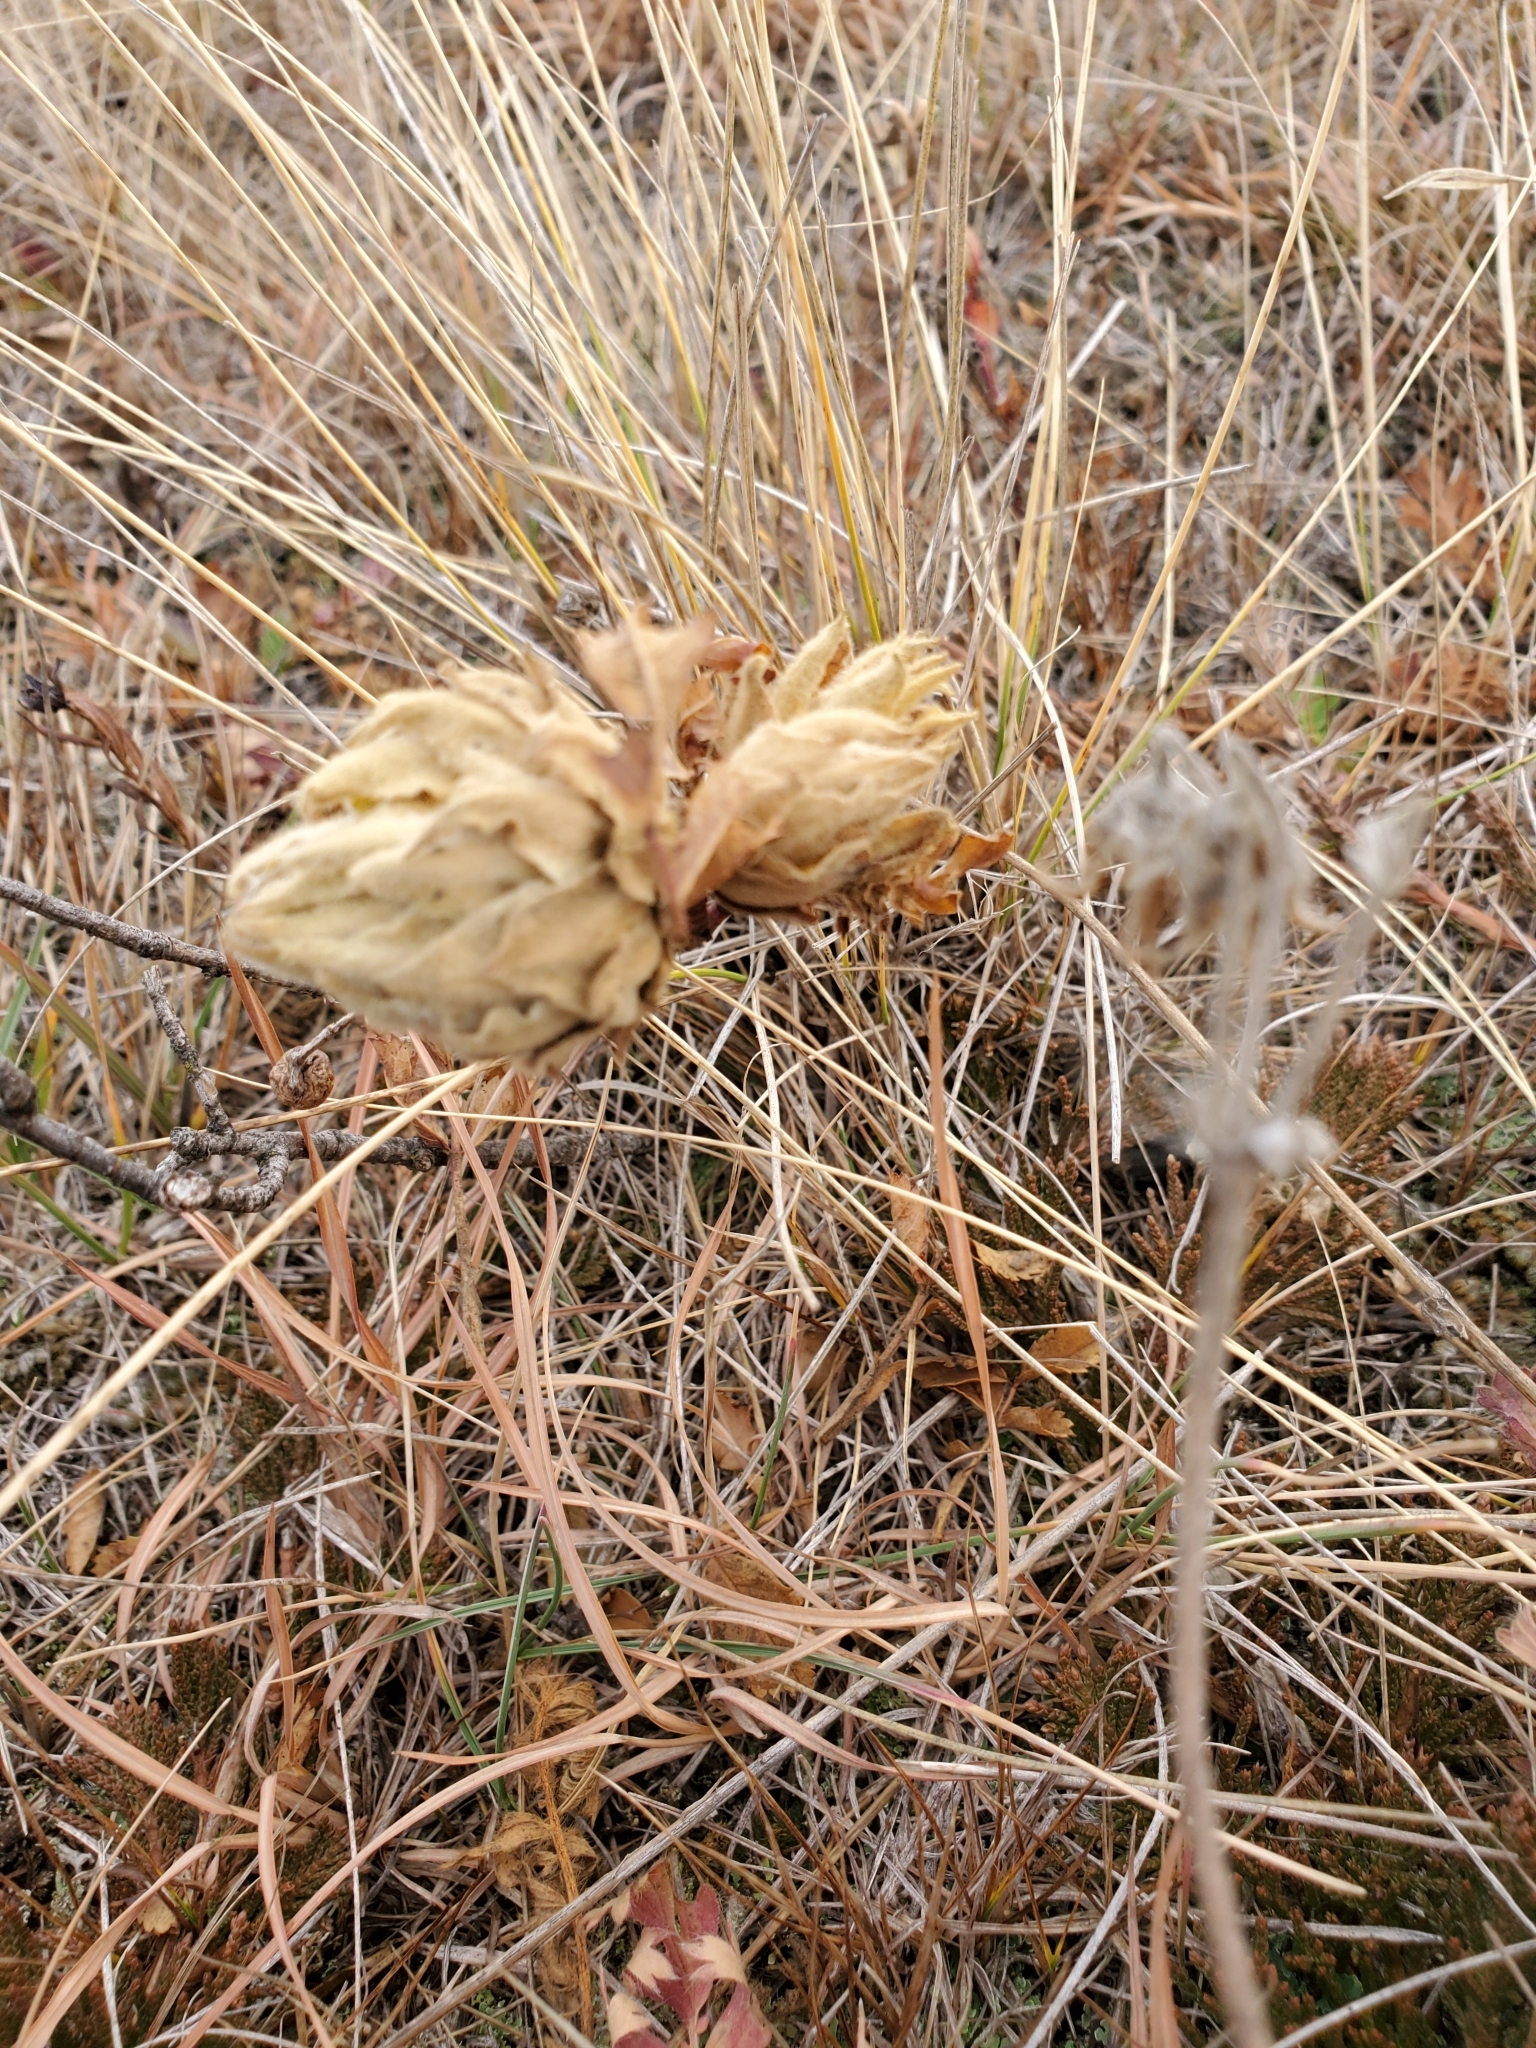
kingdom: Animalia
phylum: Arthropoda
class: Insecta
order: Diptera
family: Cecidomyiidae
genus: Rabdophaga
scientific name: Rabdophaga rosacea
